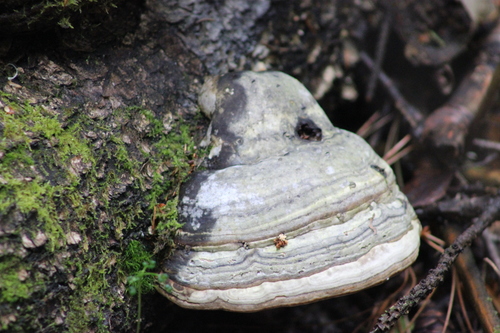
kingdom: Fungi
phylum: Basidiomycota
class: Agaricomycetes
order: Polyporales
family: Polyporaceae
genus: Fomes
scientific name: Fomes fomentarius
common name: Hoof fungus
